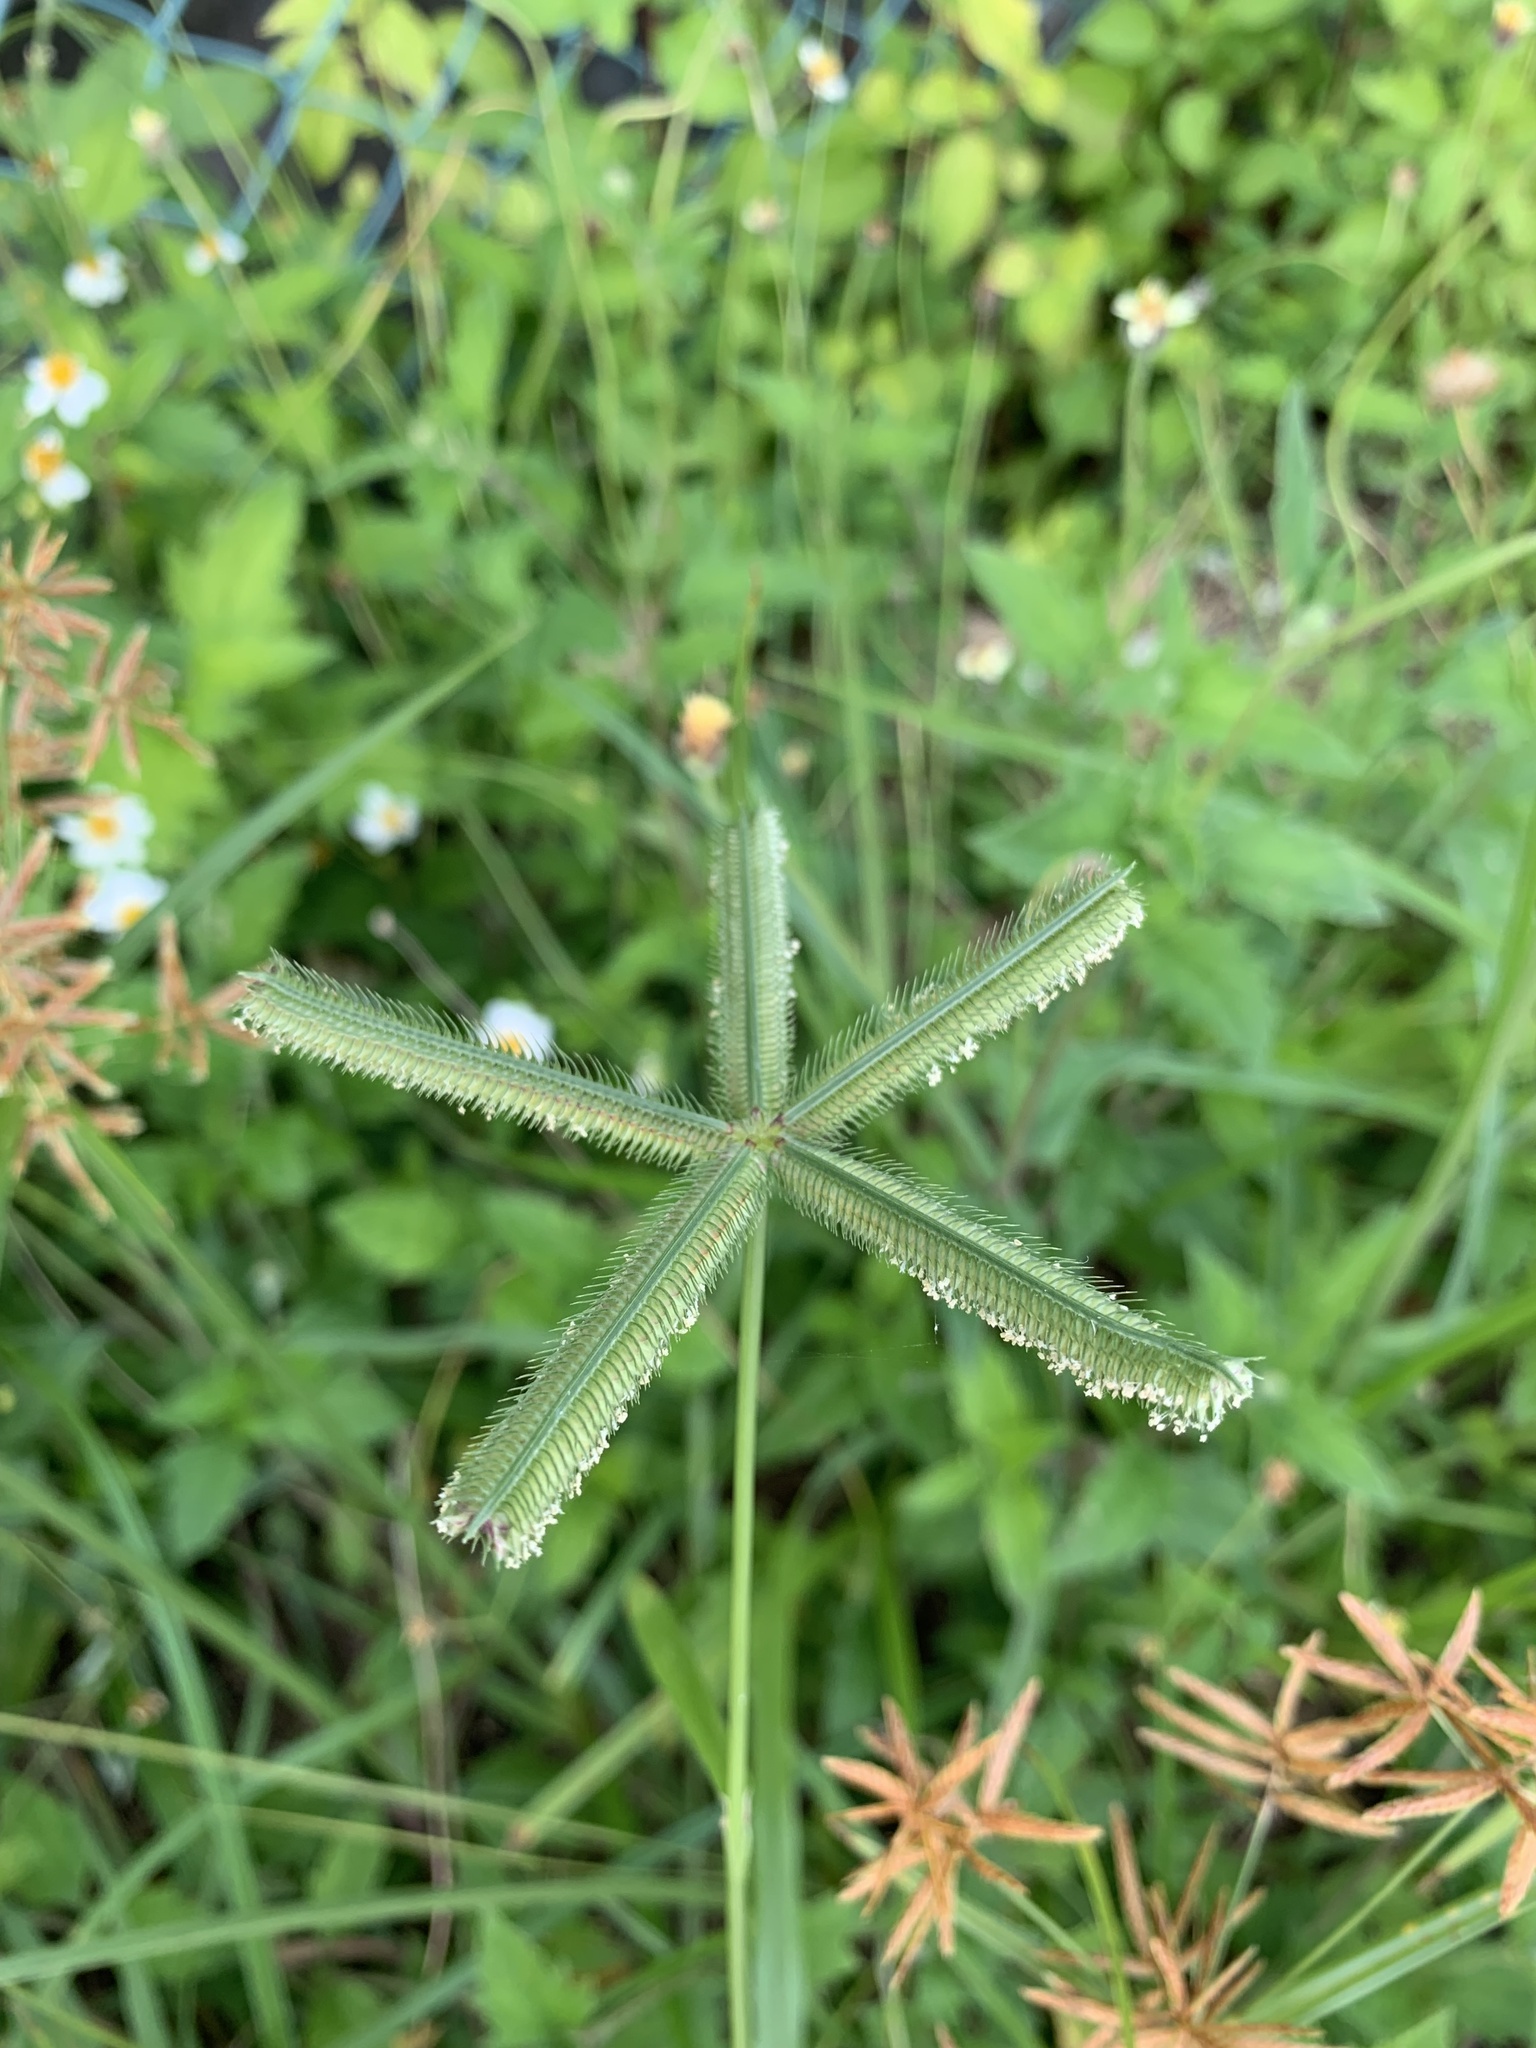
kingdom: Plantae
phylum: Tracheophyta
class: Liliopsida
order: Poales
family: Poaceae
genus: Dactyloctenium
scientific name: Dactyloctenium aegyptium
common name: Egyptian grass
